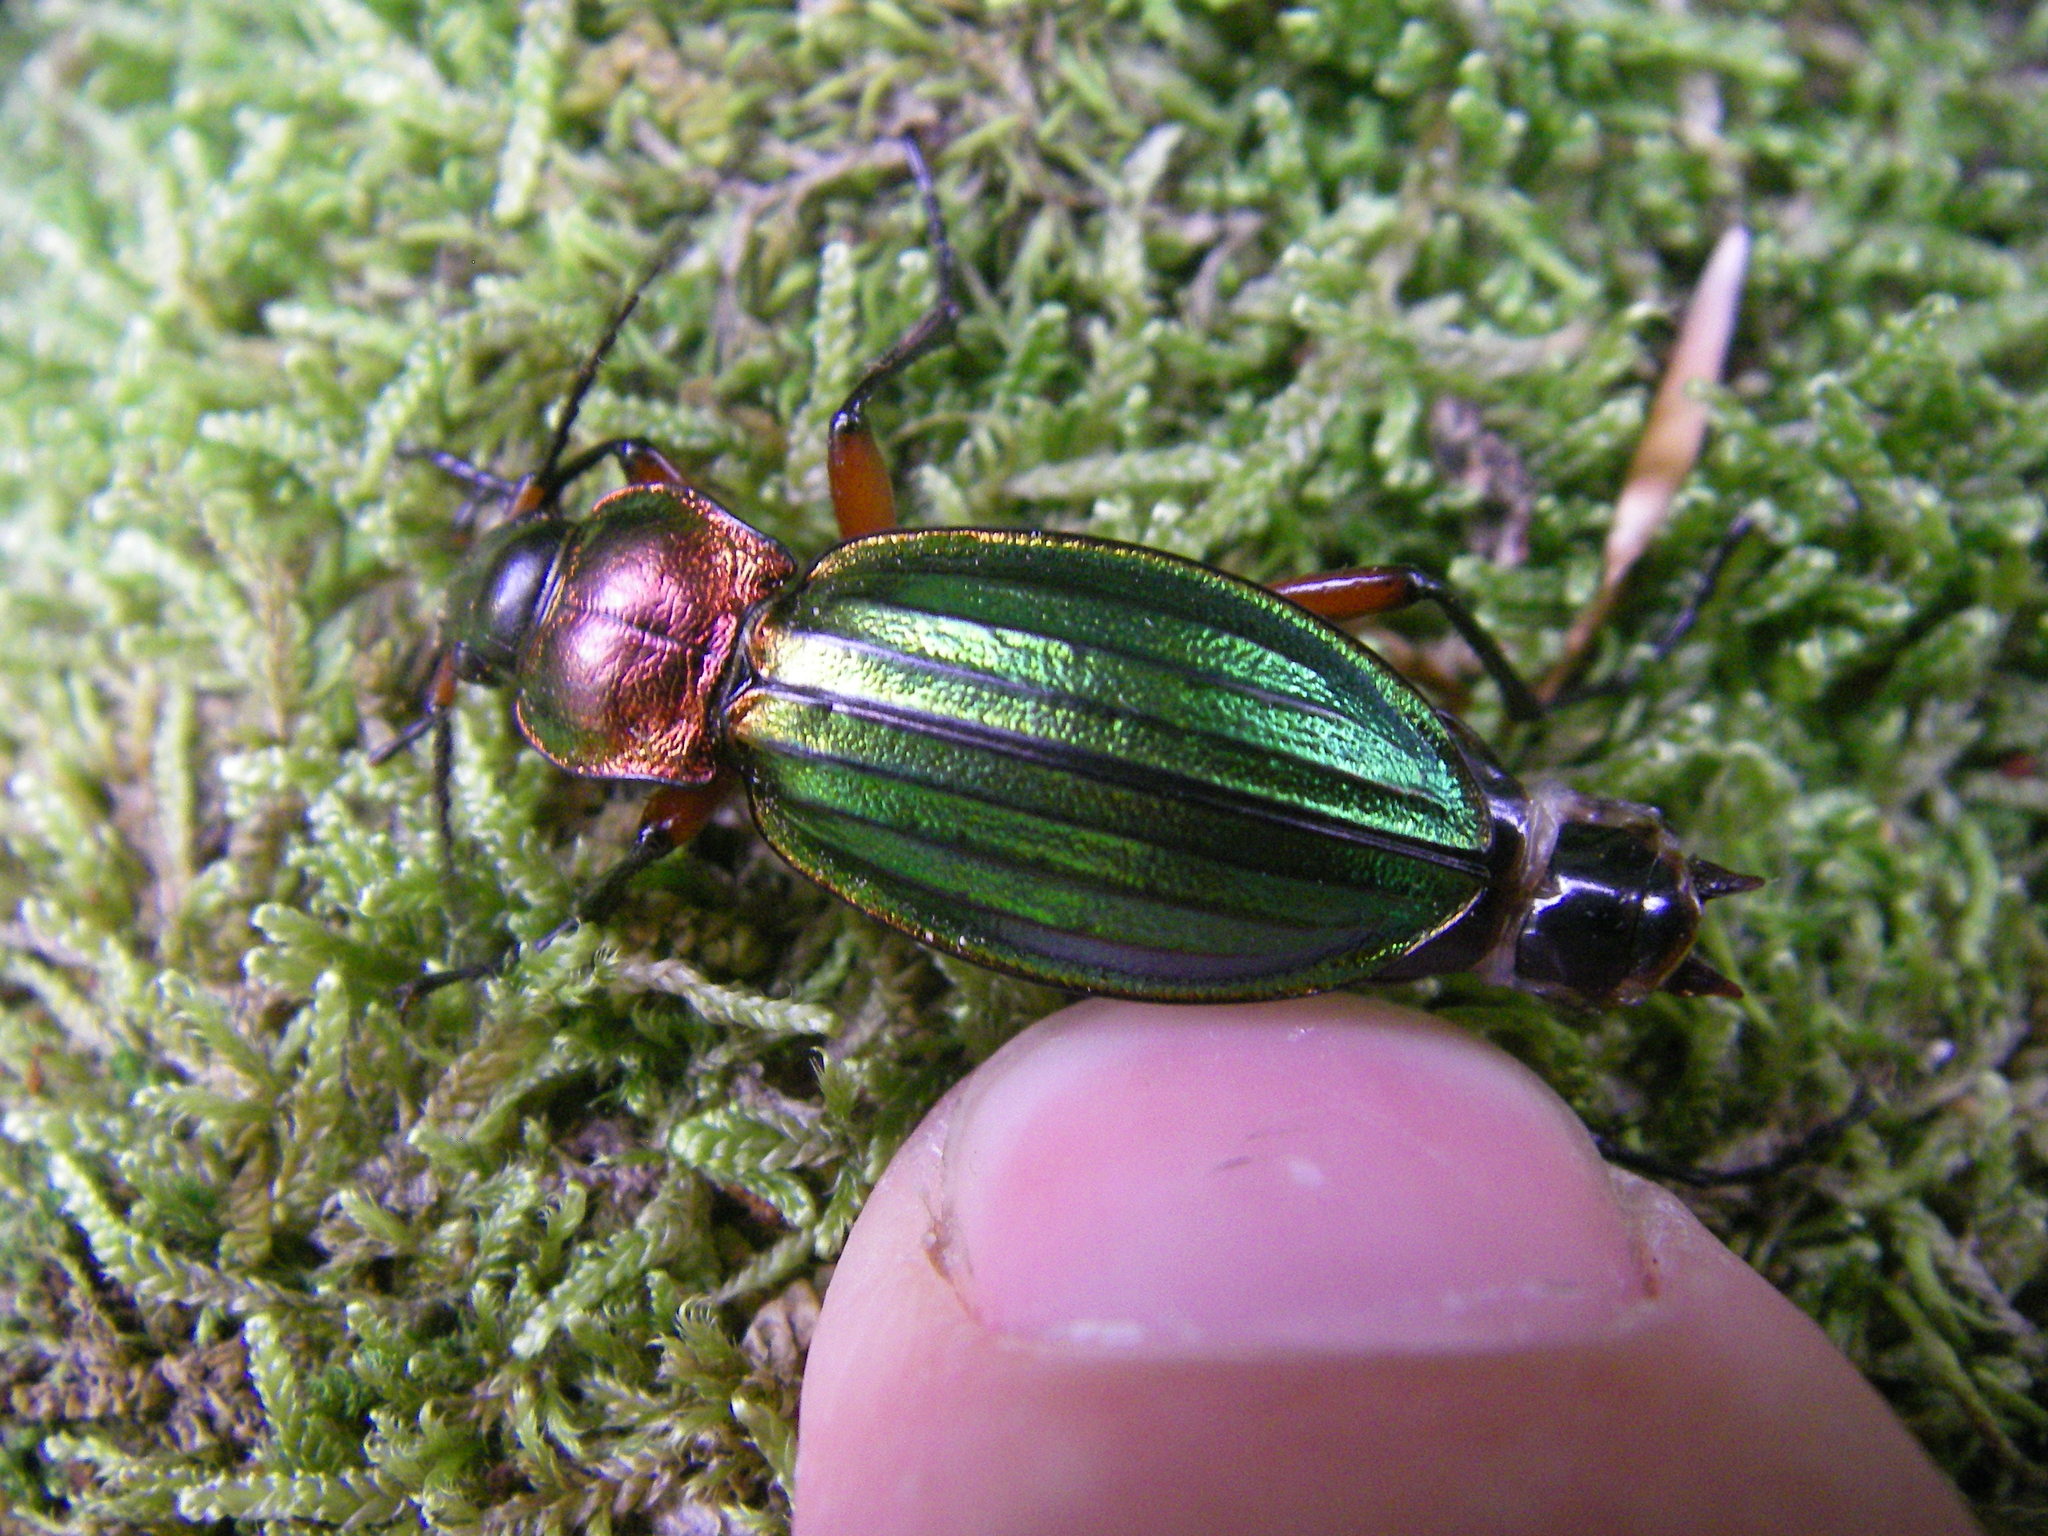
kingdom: Animalia
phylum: Arthropoda
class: Insecta
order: Coleoptera
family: Carabidae
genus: Carabus
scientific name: Carabus auronitens
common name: Carabus auronitens
